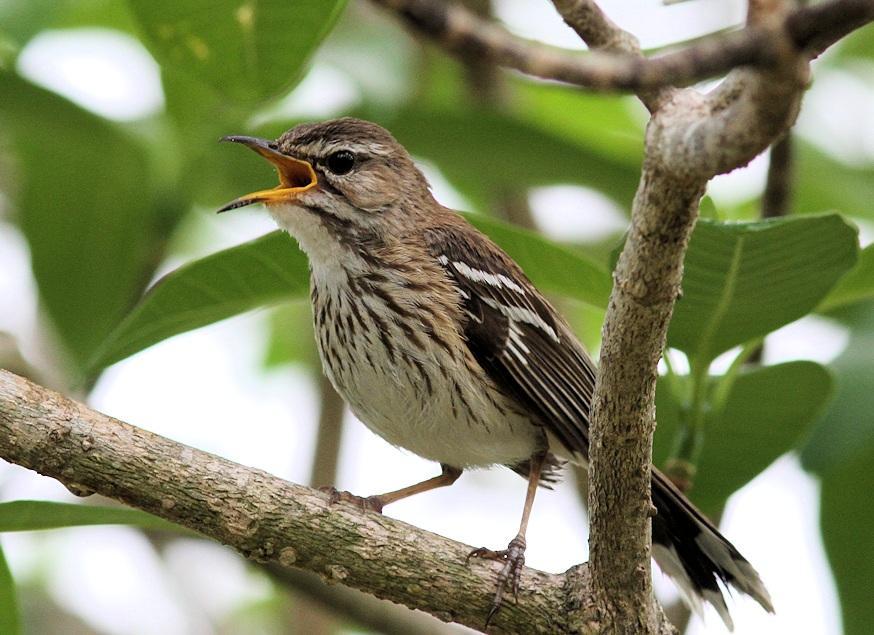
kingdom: Animalia
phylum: Chordata
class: Aves
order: Passeriformes
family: Muscicapidae
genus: Erythropygia
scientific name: Erythropygia leucophrys
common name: White-browed scrub robin
